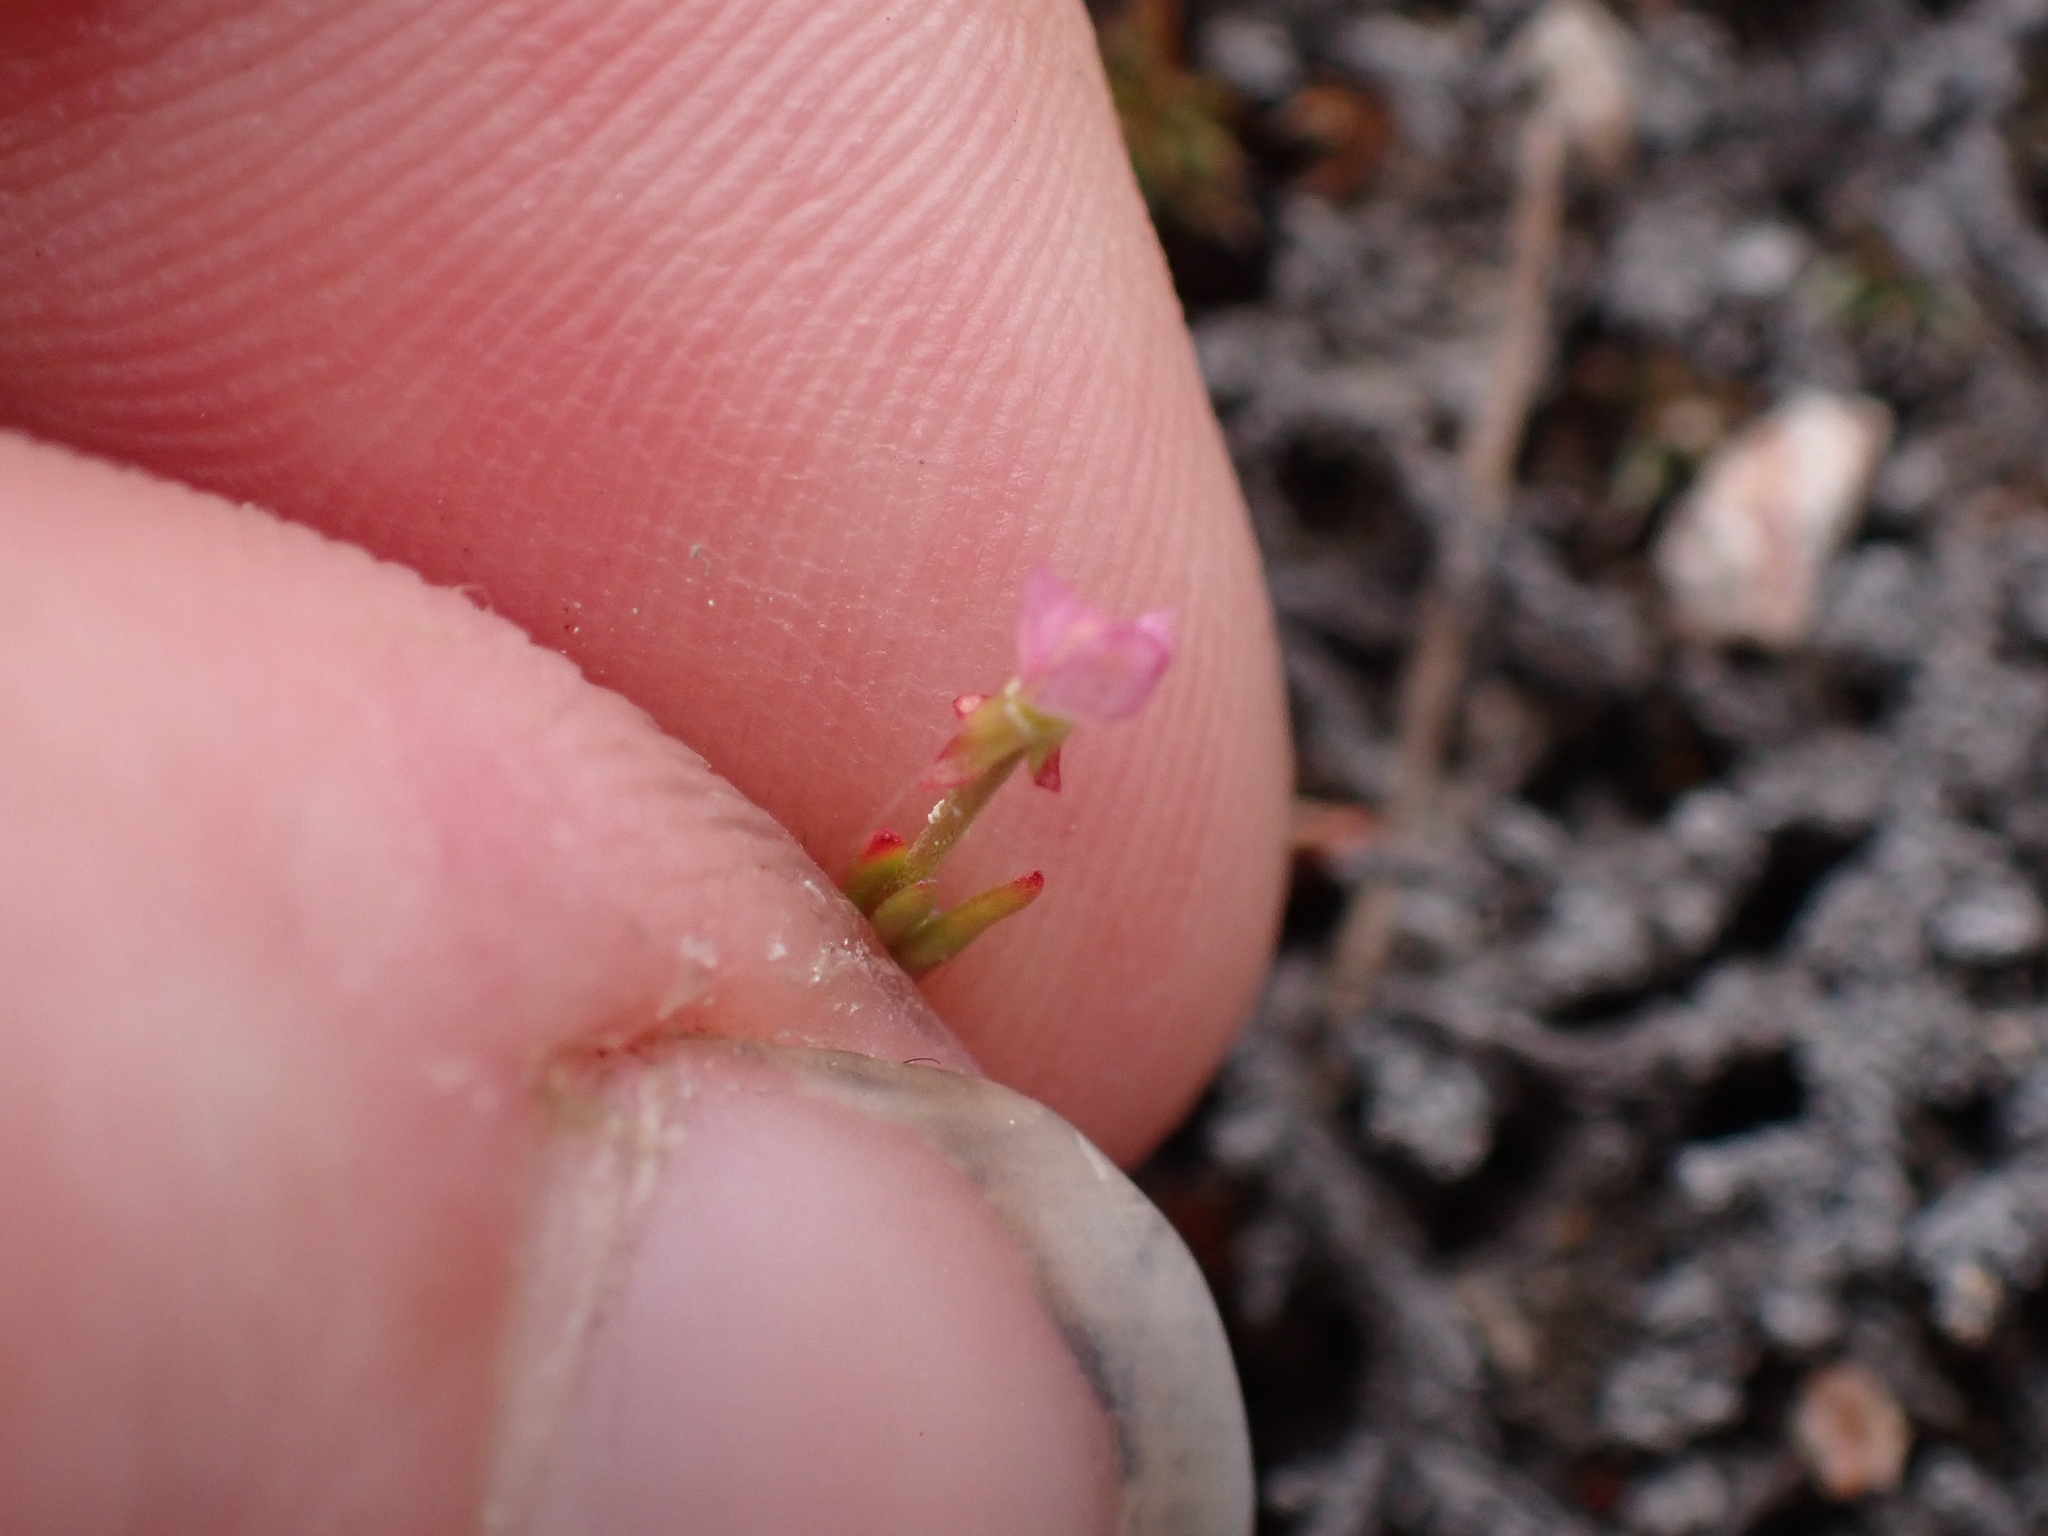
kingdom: Plantae
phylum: Tracheophyta
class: Magnoliopsida
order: Myrtales
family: Onagraceae
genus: Epilobium
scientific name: Epilobium minutum
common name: Chaparral willowherb
